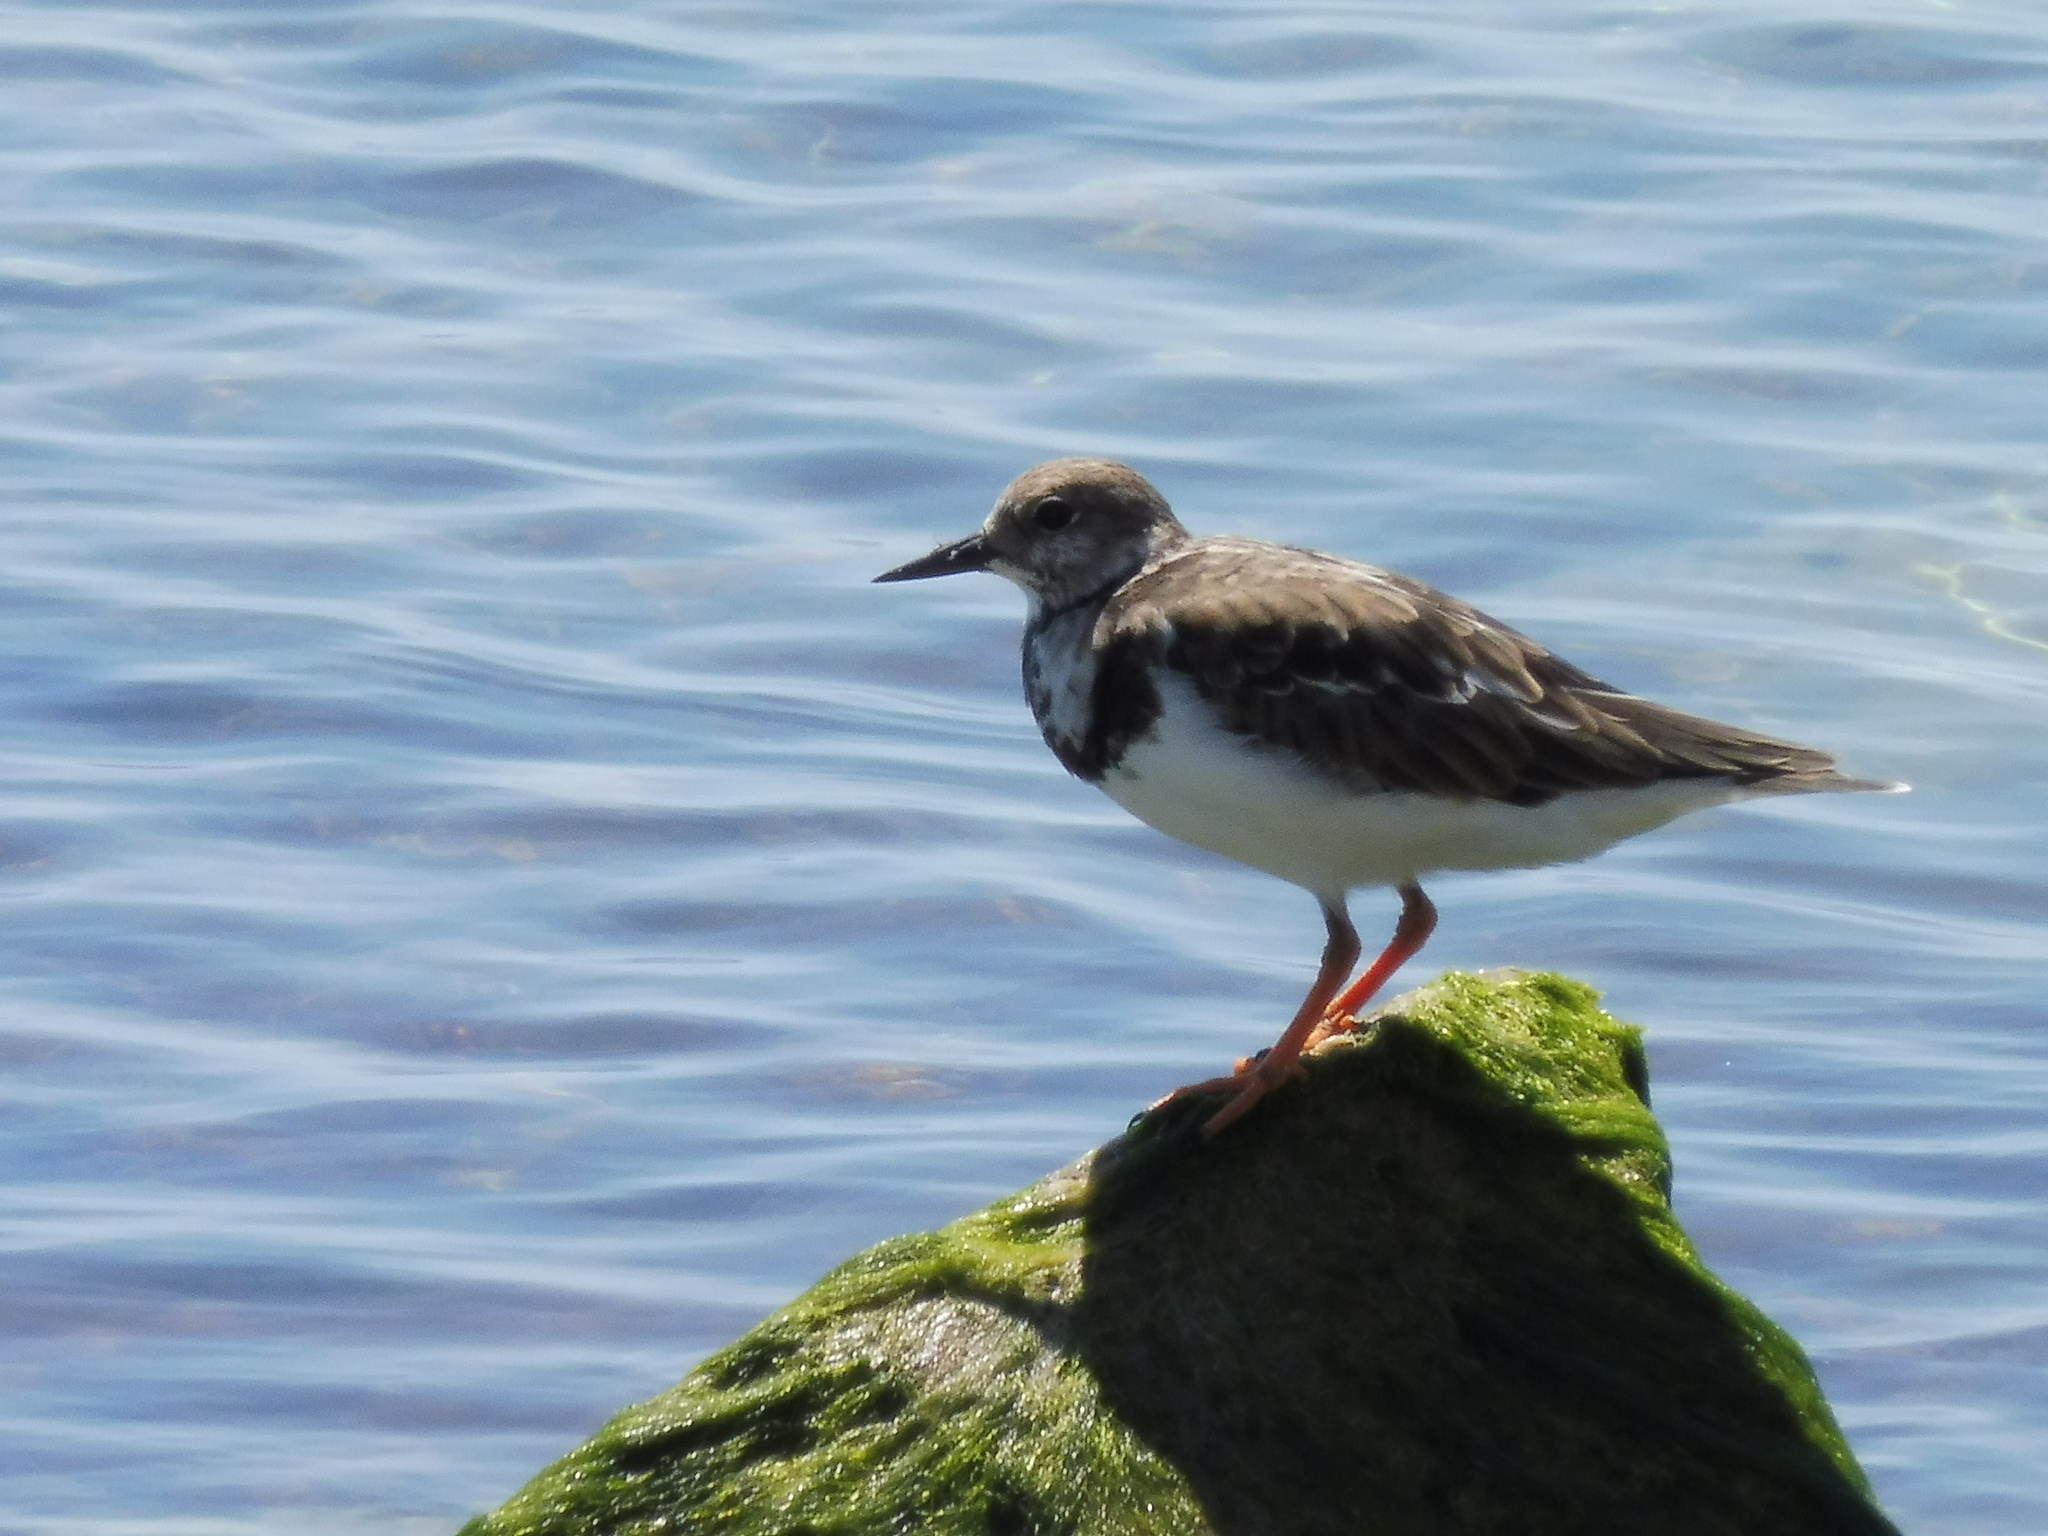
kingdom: Animalia
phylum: Chordata
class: Aves
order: Charadriiformes
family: Scolopacidae
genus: Arenaria
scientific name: Arenaria interpres
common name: Ruddy turnstone
